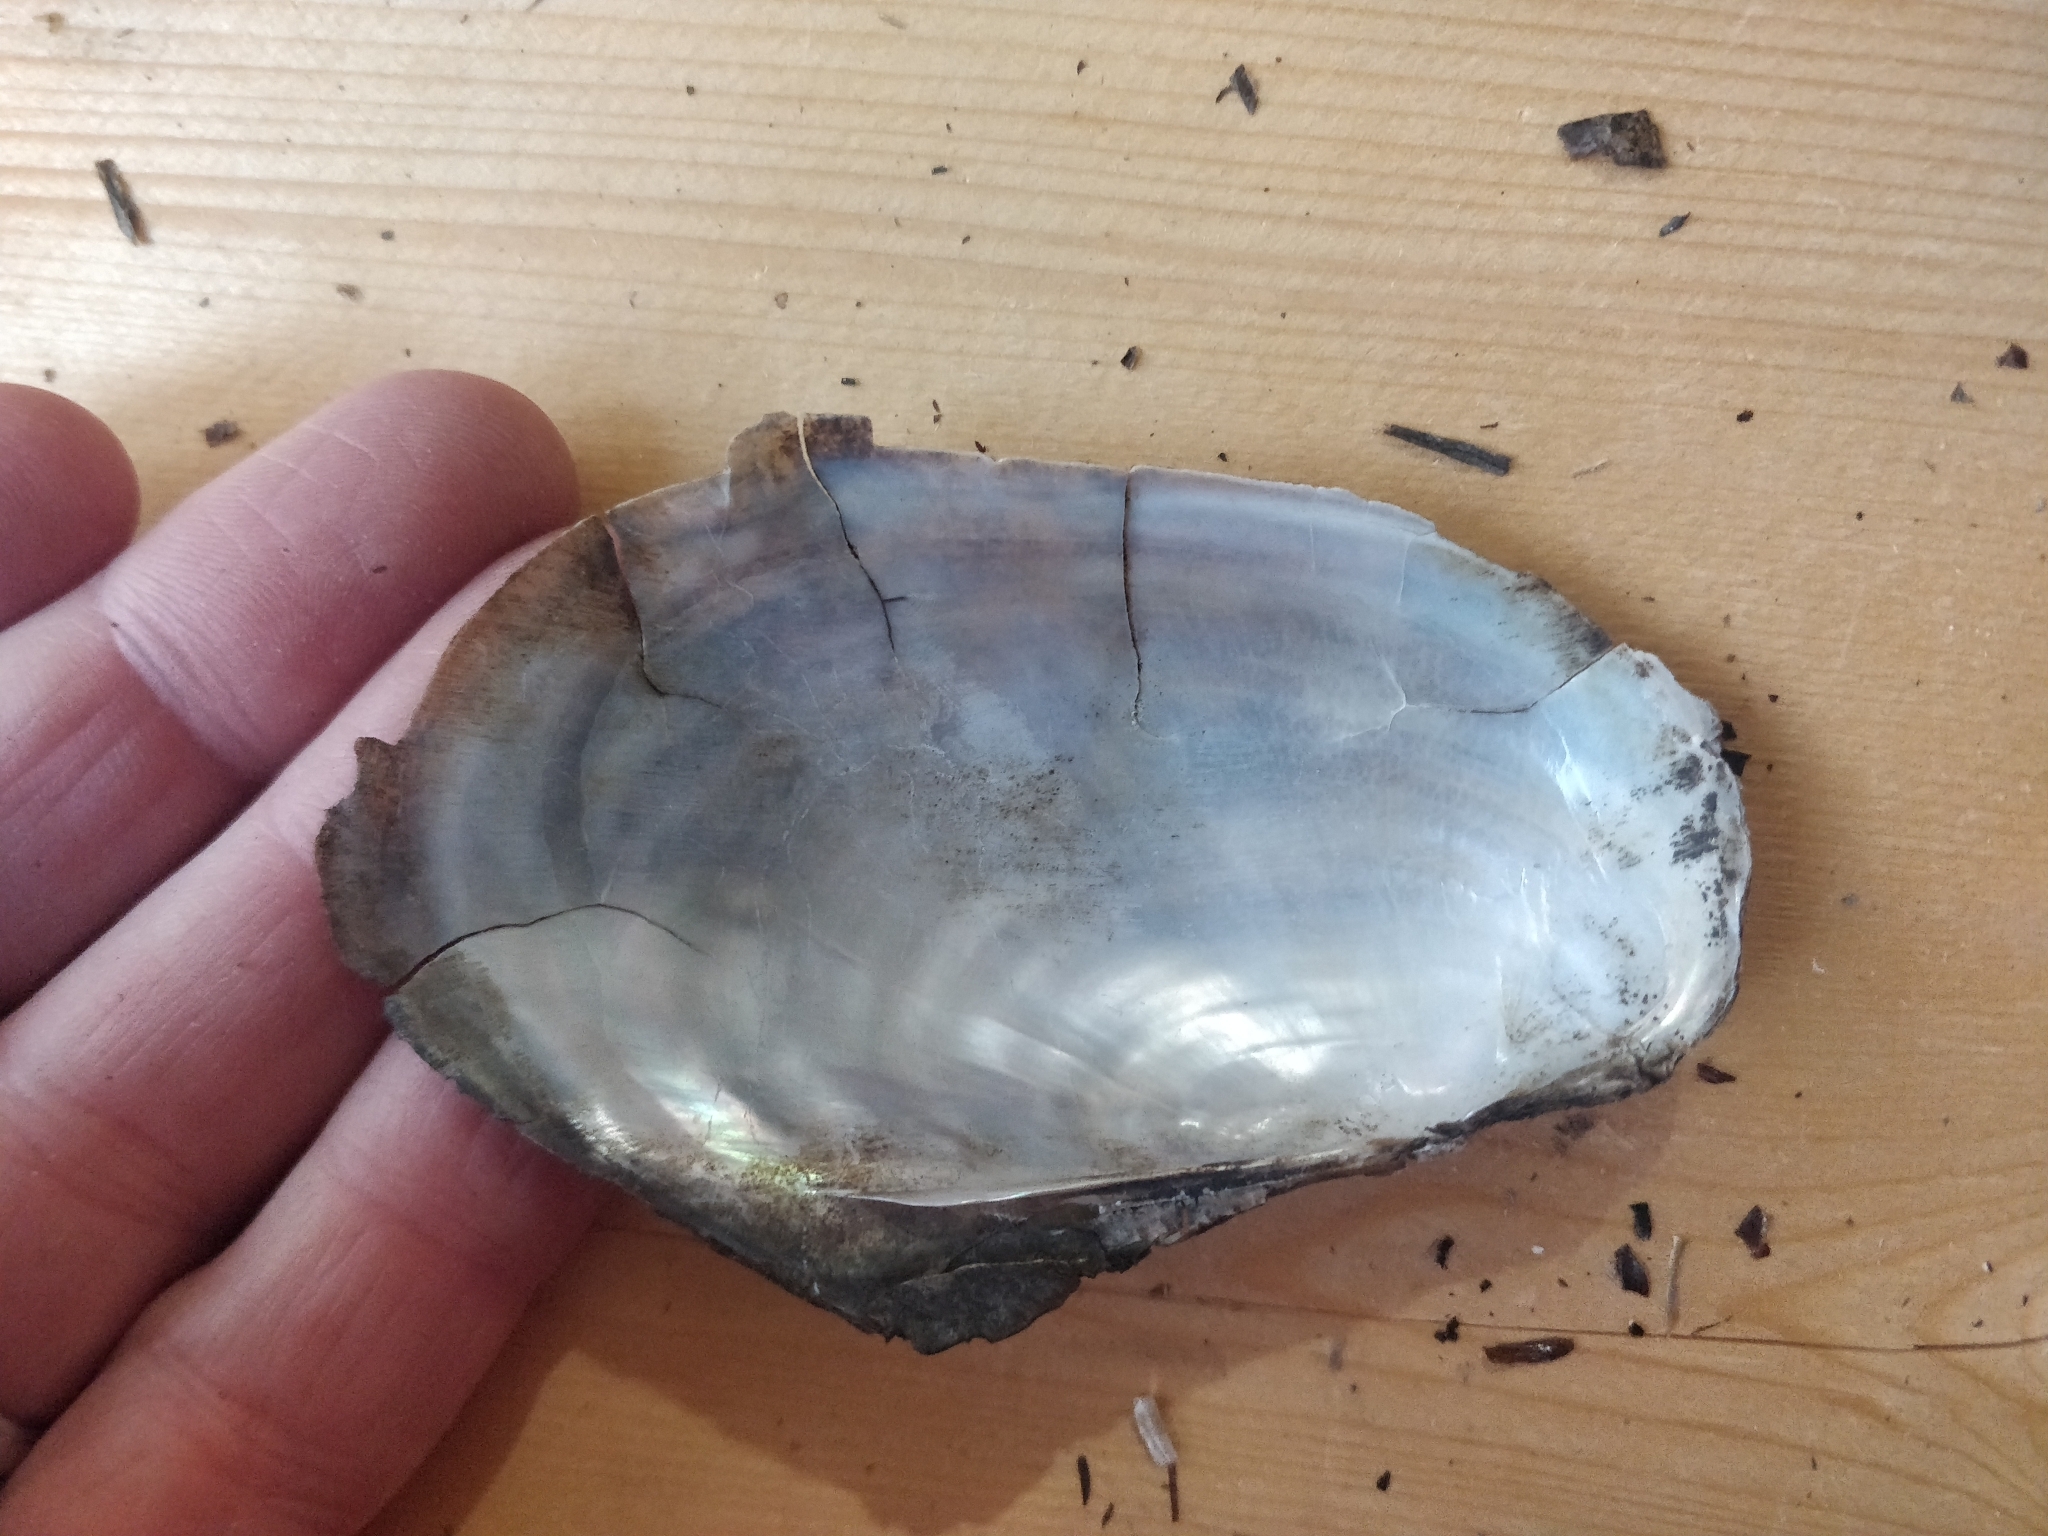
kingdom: Animalia
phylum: Mollusca
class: Bivalvia
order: Unionida
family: Unionidae
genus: Potamilus
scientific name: Potamilus fragilis
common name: Fragile papershell
